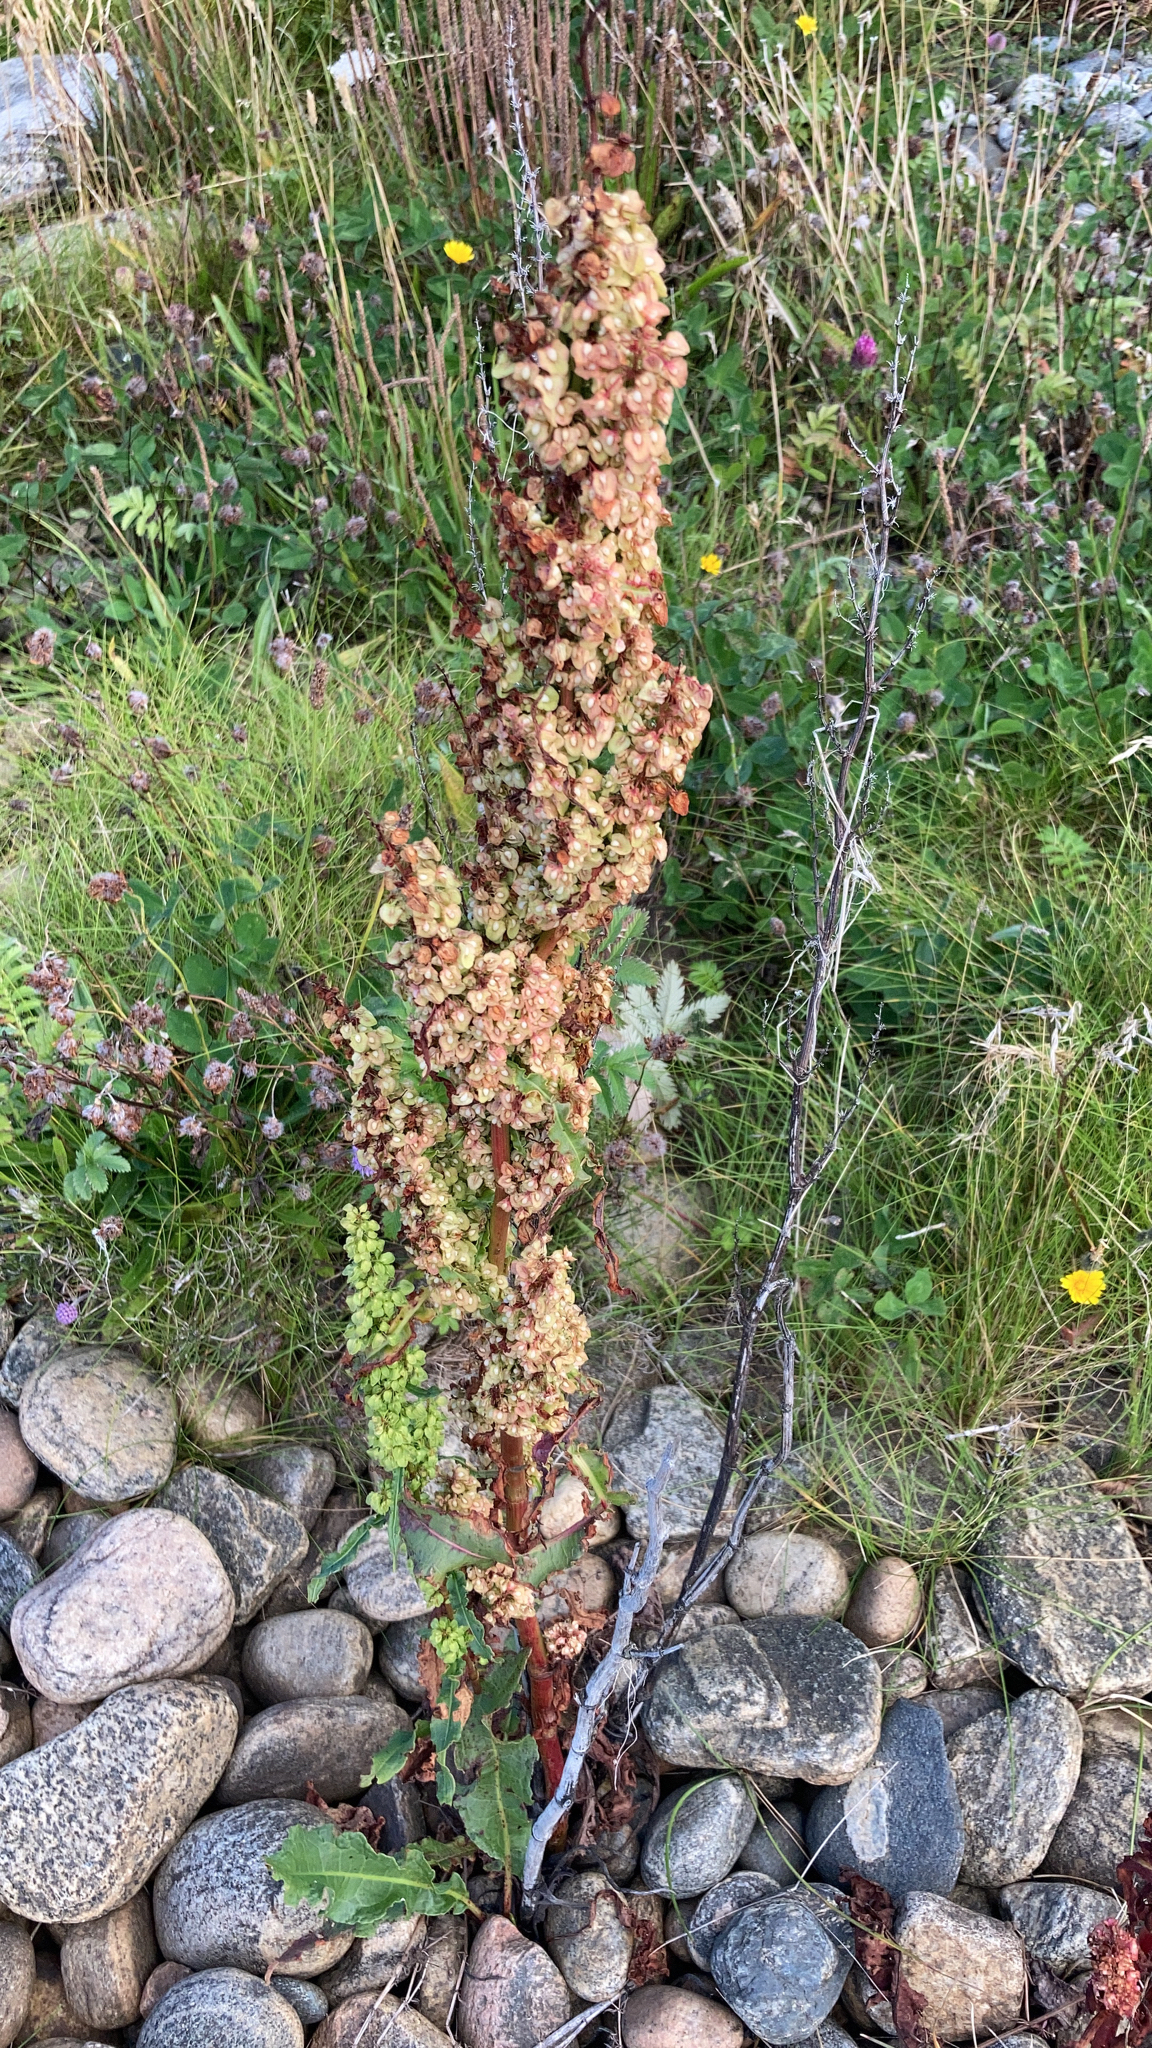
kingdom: Plantae
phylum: Tracheophyta
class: Magnoliopsida
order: Caryophyllales
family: Polygonaceae
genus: Rumex
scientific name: Rumex crispus
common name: Curled dock
